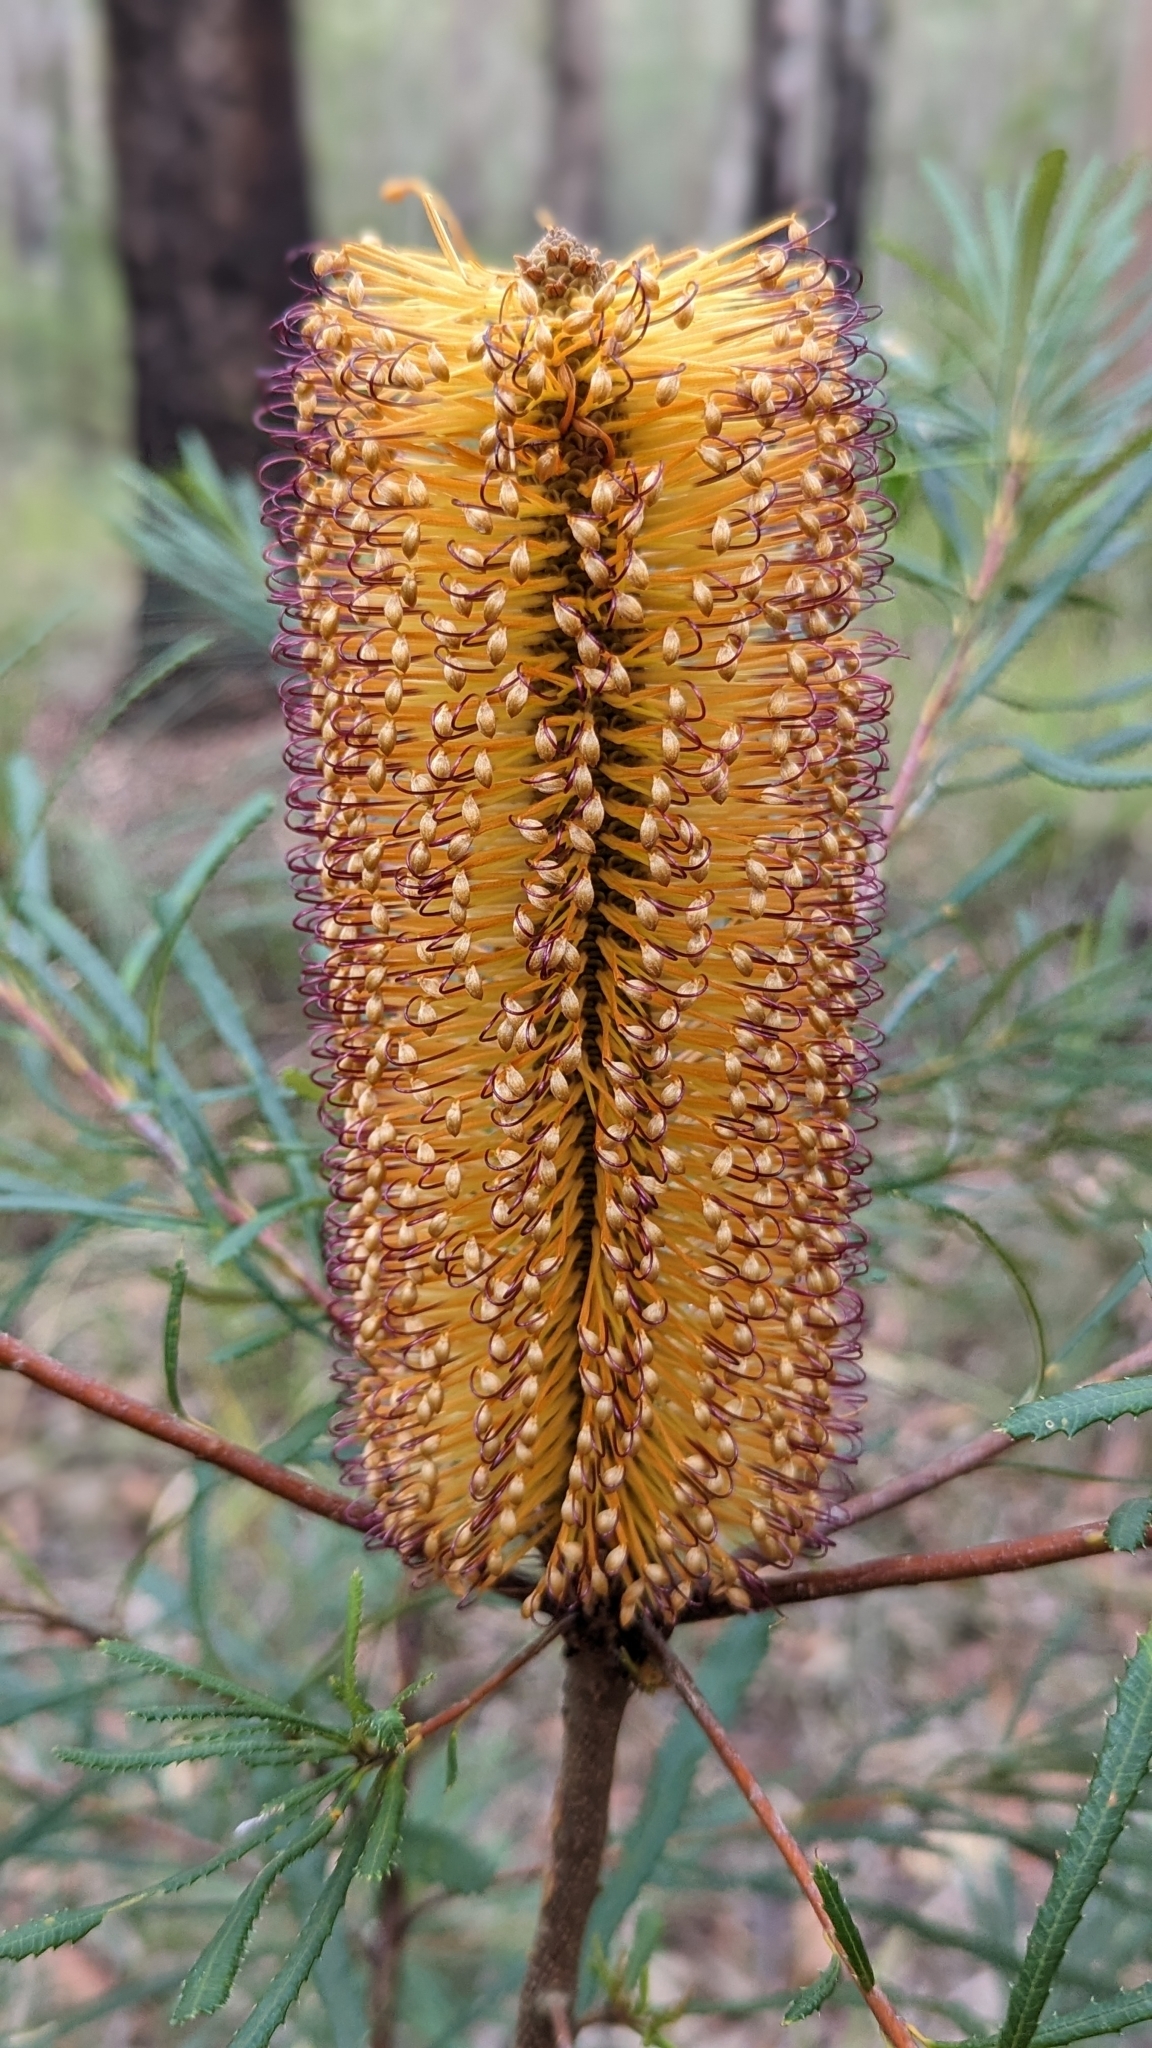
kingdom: Plantae
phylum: Tracheophyta
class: Magnoliopsida
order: Proteales
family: Proteaceae
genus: Banksia
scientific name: Banksia spinulosa
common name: Hairpin banksia
